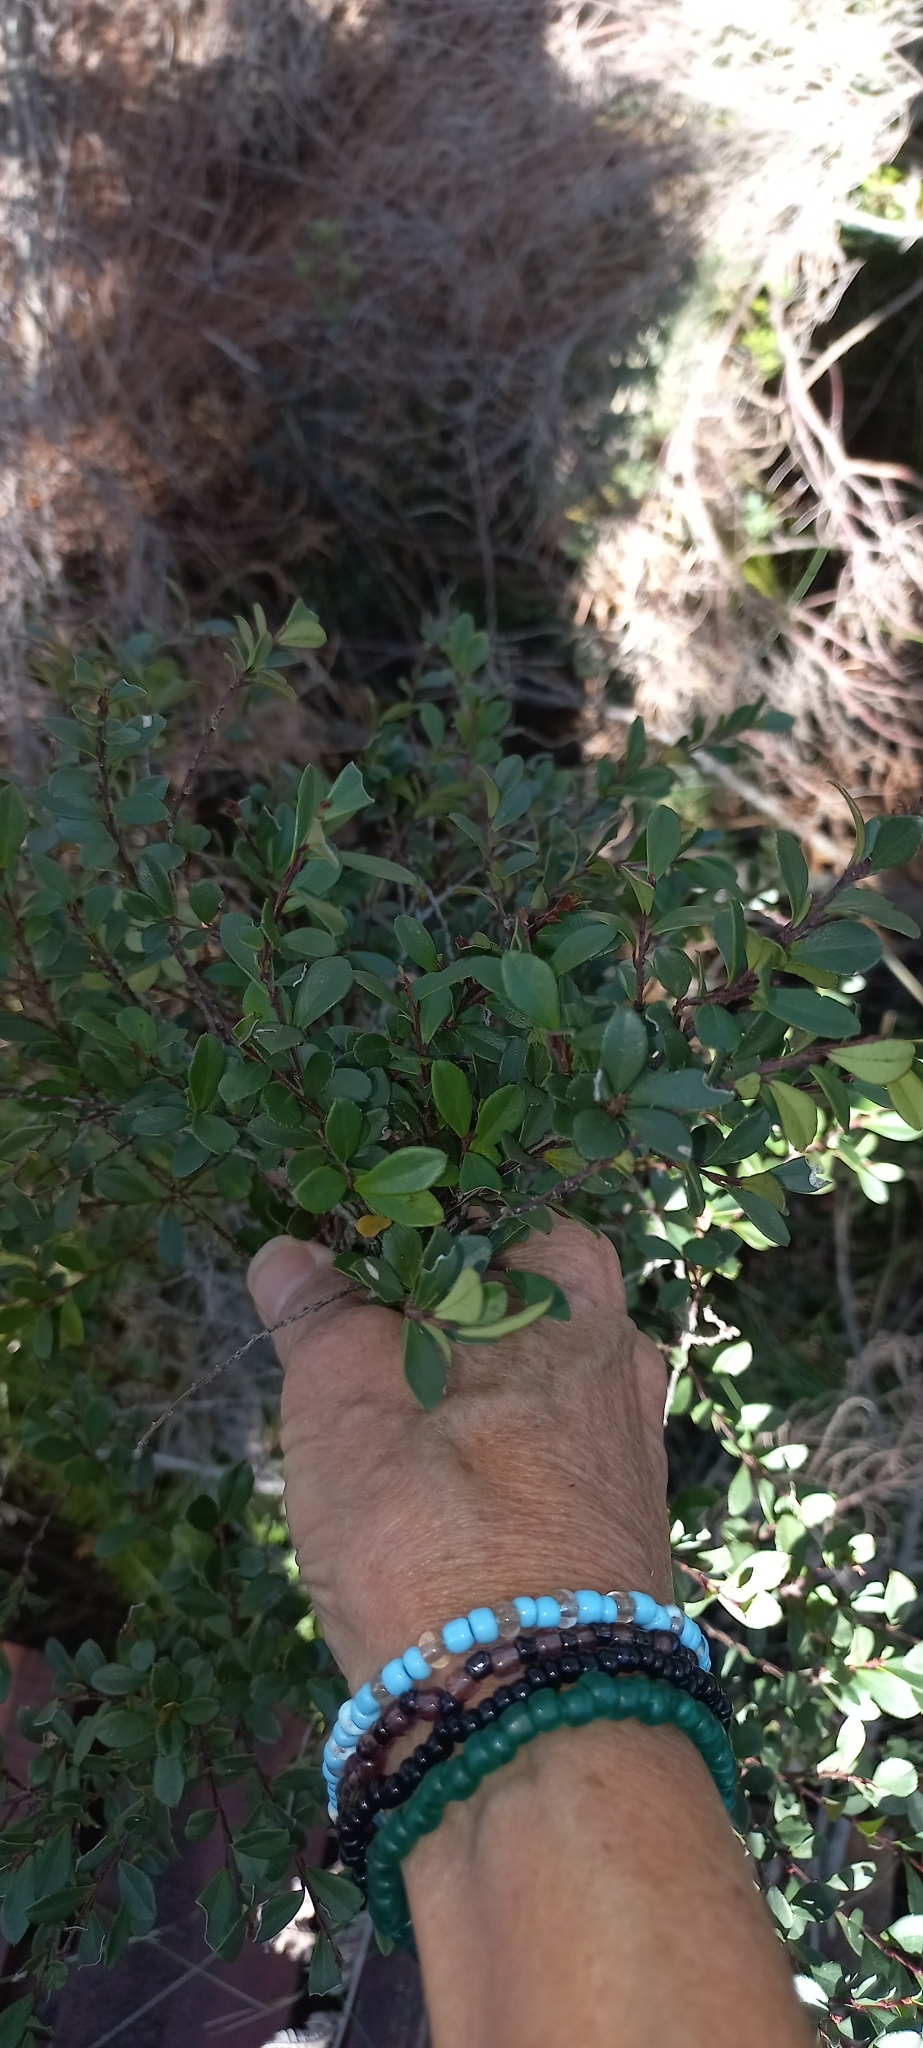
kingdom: Plantae
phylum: Tracheophyta
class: Magnoliopsida
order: Ericales
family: Primulaceae
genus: Myrsine
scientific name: Myrsine africana
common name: African-boxwood
